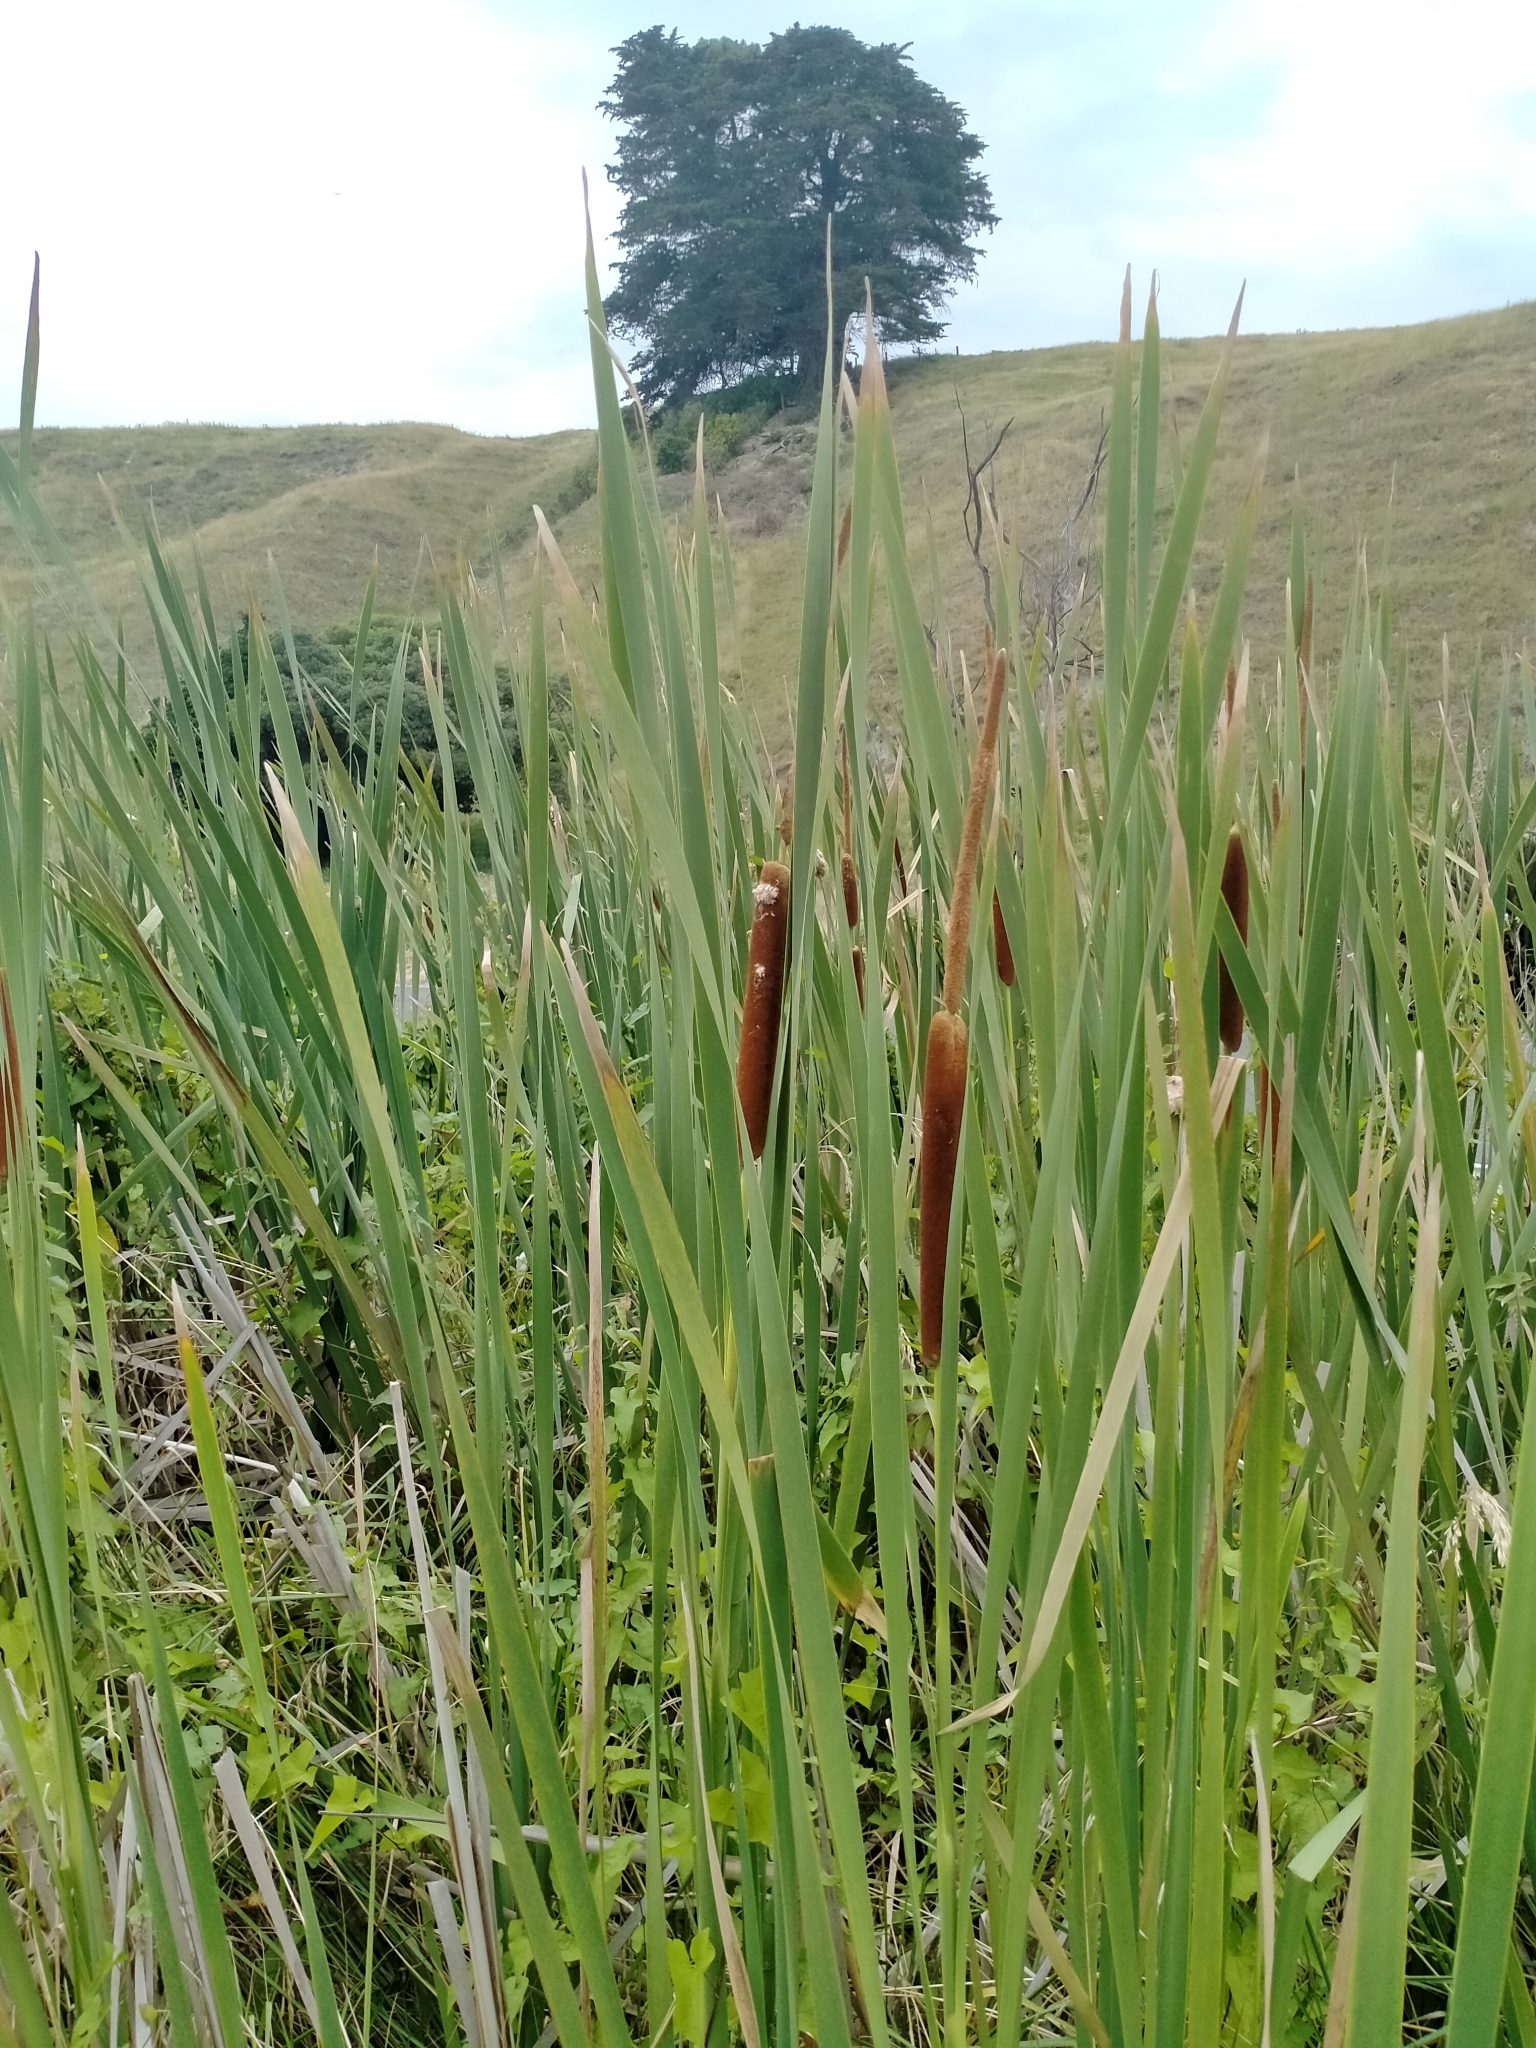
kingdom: Plantae
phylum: Tracheophyta
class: Liliopsida
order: Poales
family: Typhaceae
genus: Typha
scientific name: Typha orientalis
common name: Bullrush
